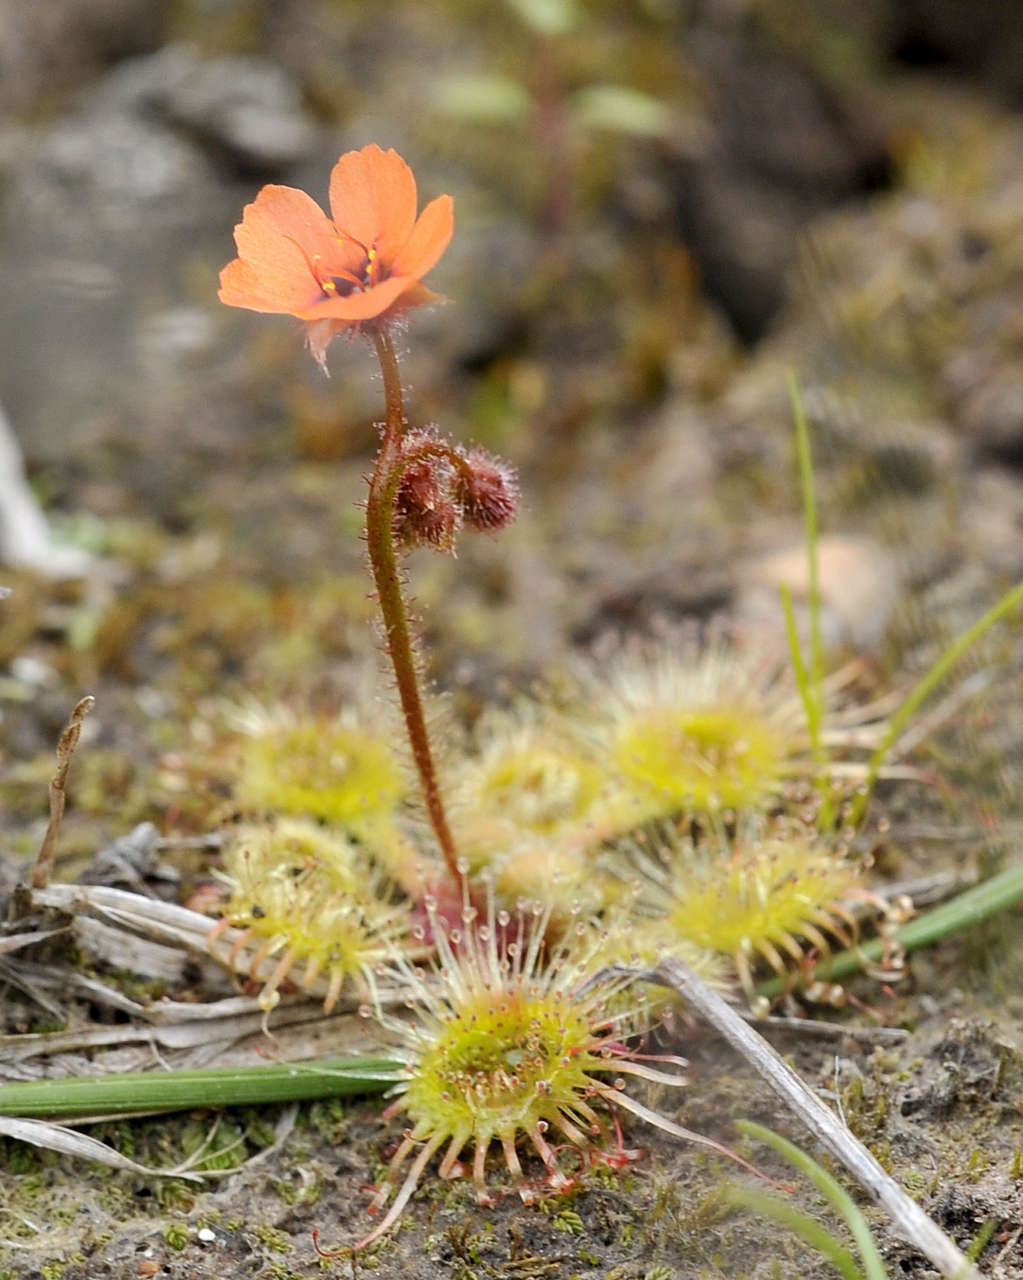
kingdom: Plantae
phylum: Tracheophyta
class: Magnoliopsida
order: Caryophyllales
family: Droseraceae
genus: Drosera
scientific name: Drosera glanduligera
